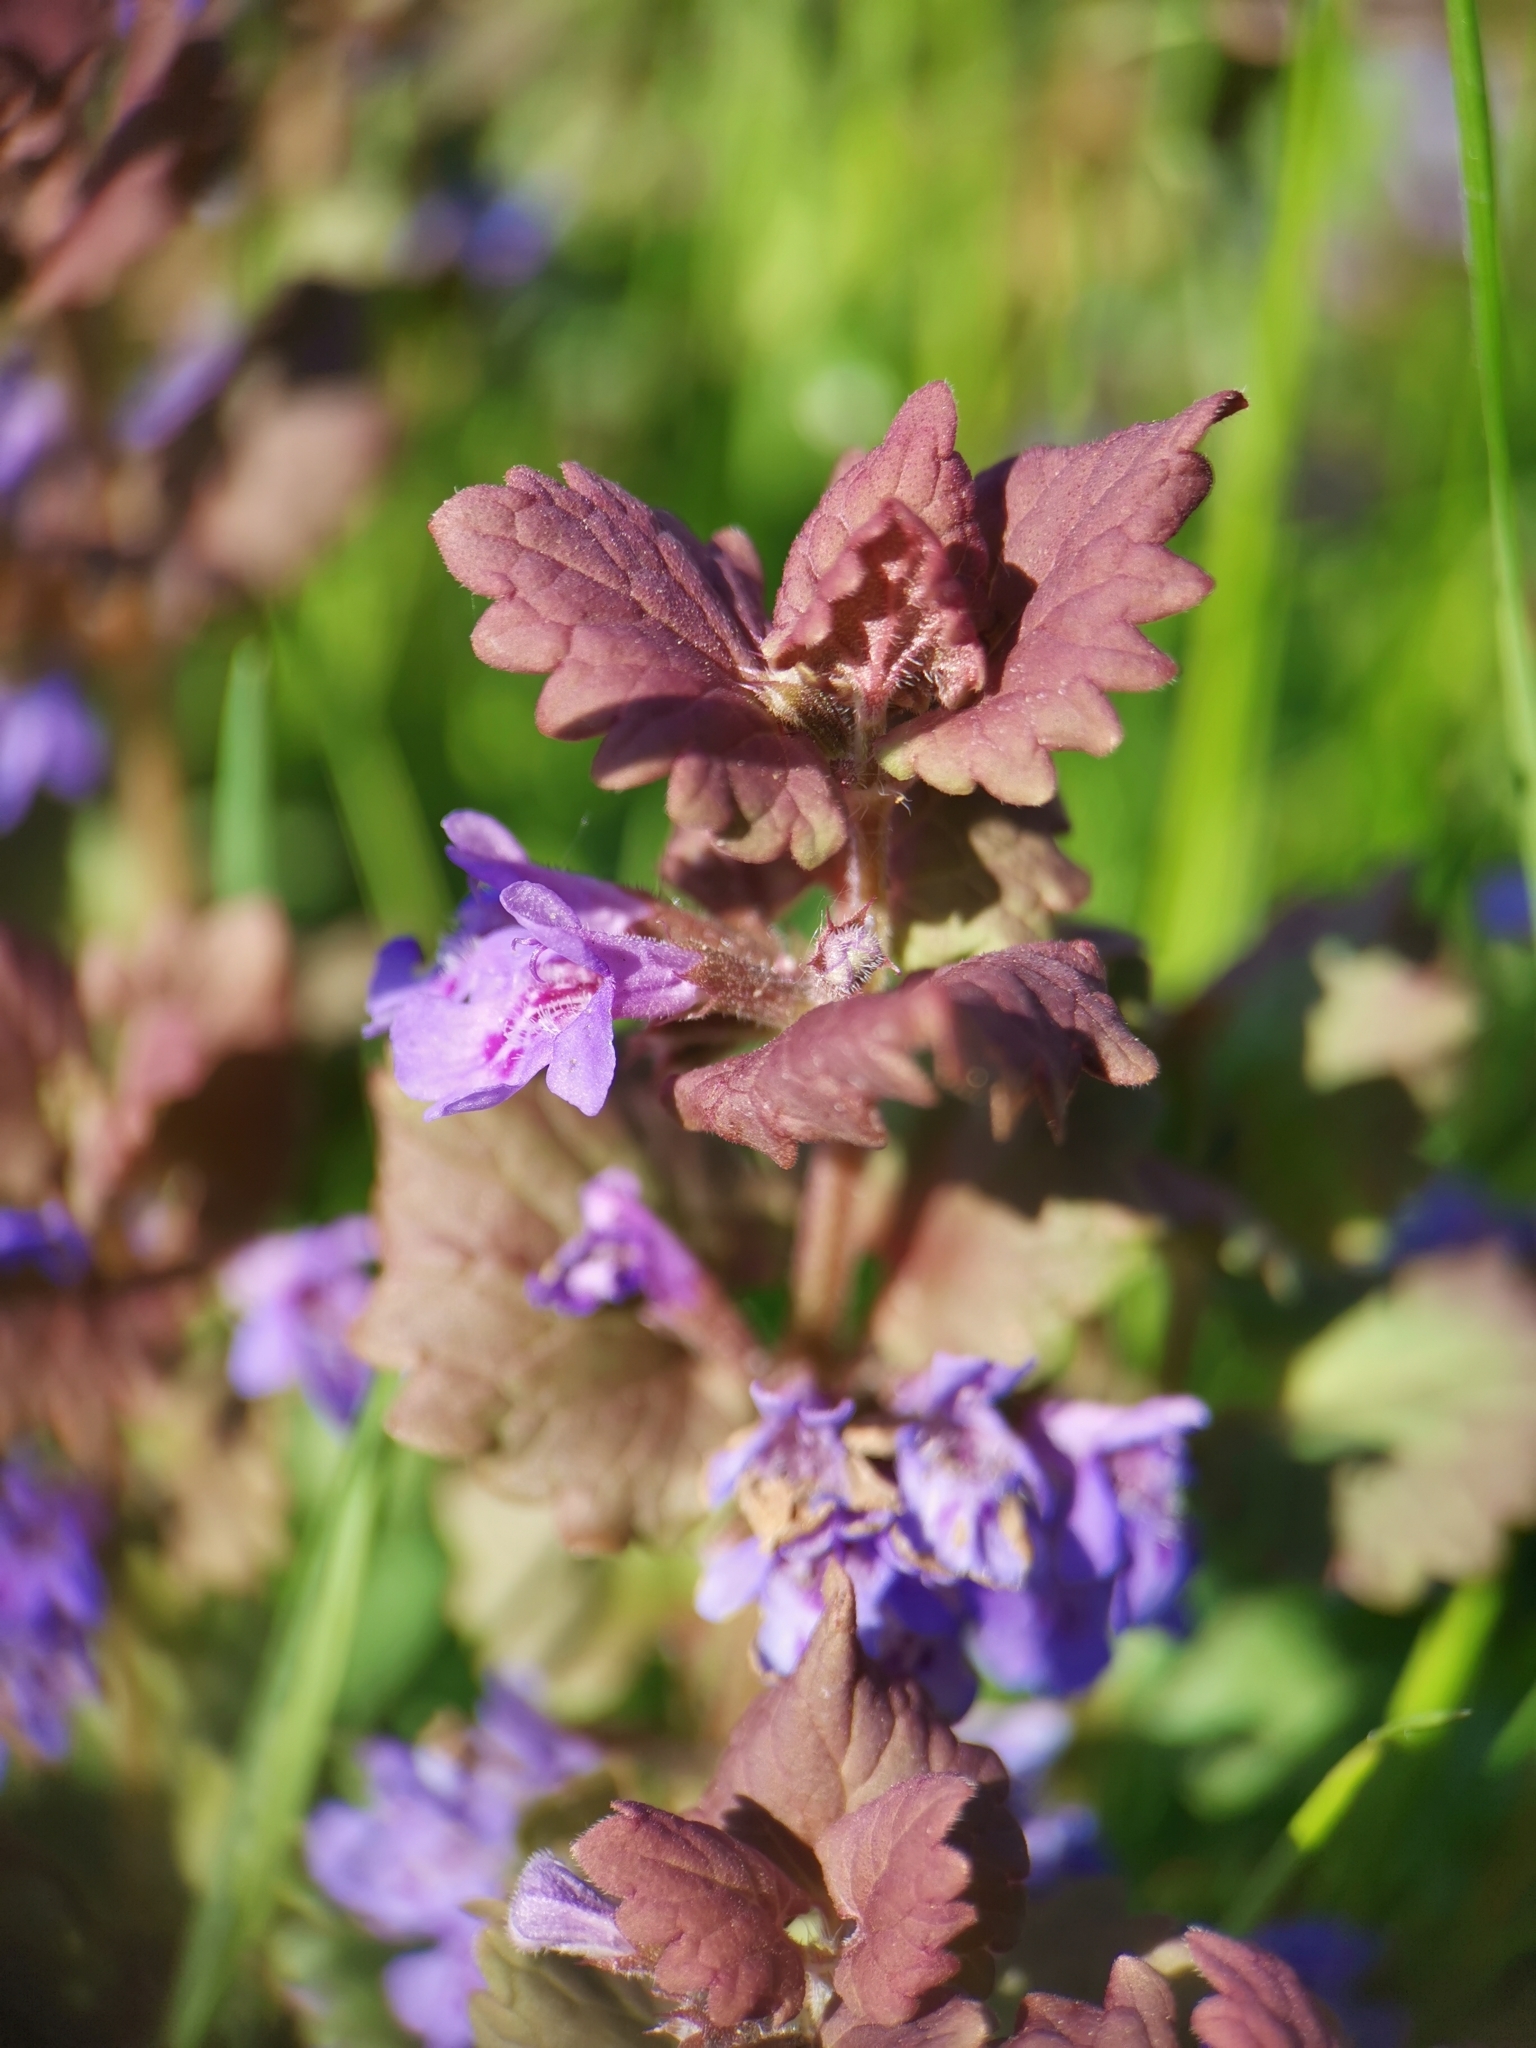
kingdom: Plantae
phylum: Tracheophyta
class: Magnoliopsida
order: Lamiales
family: Lamiaceae
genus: Glechoma
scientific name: Glechoma hederacea
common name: Ground ivy
